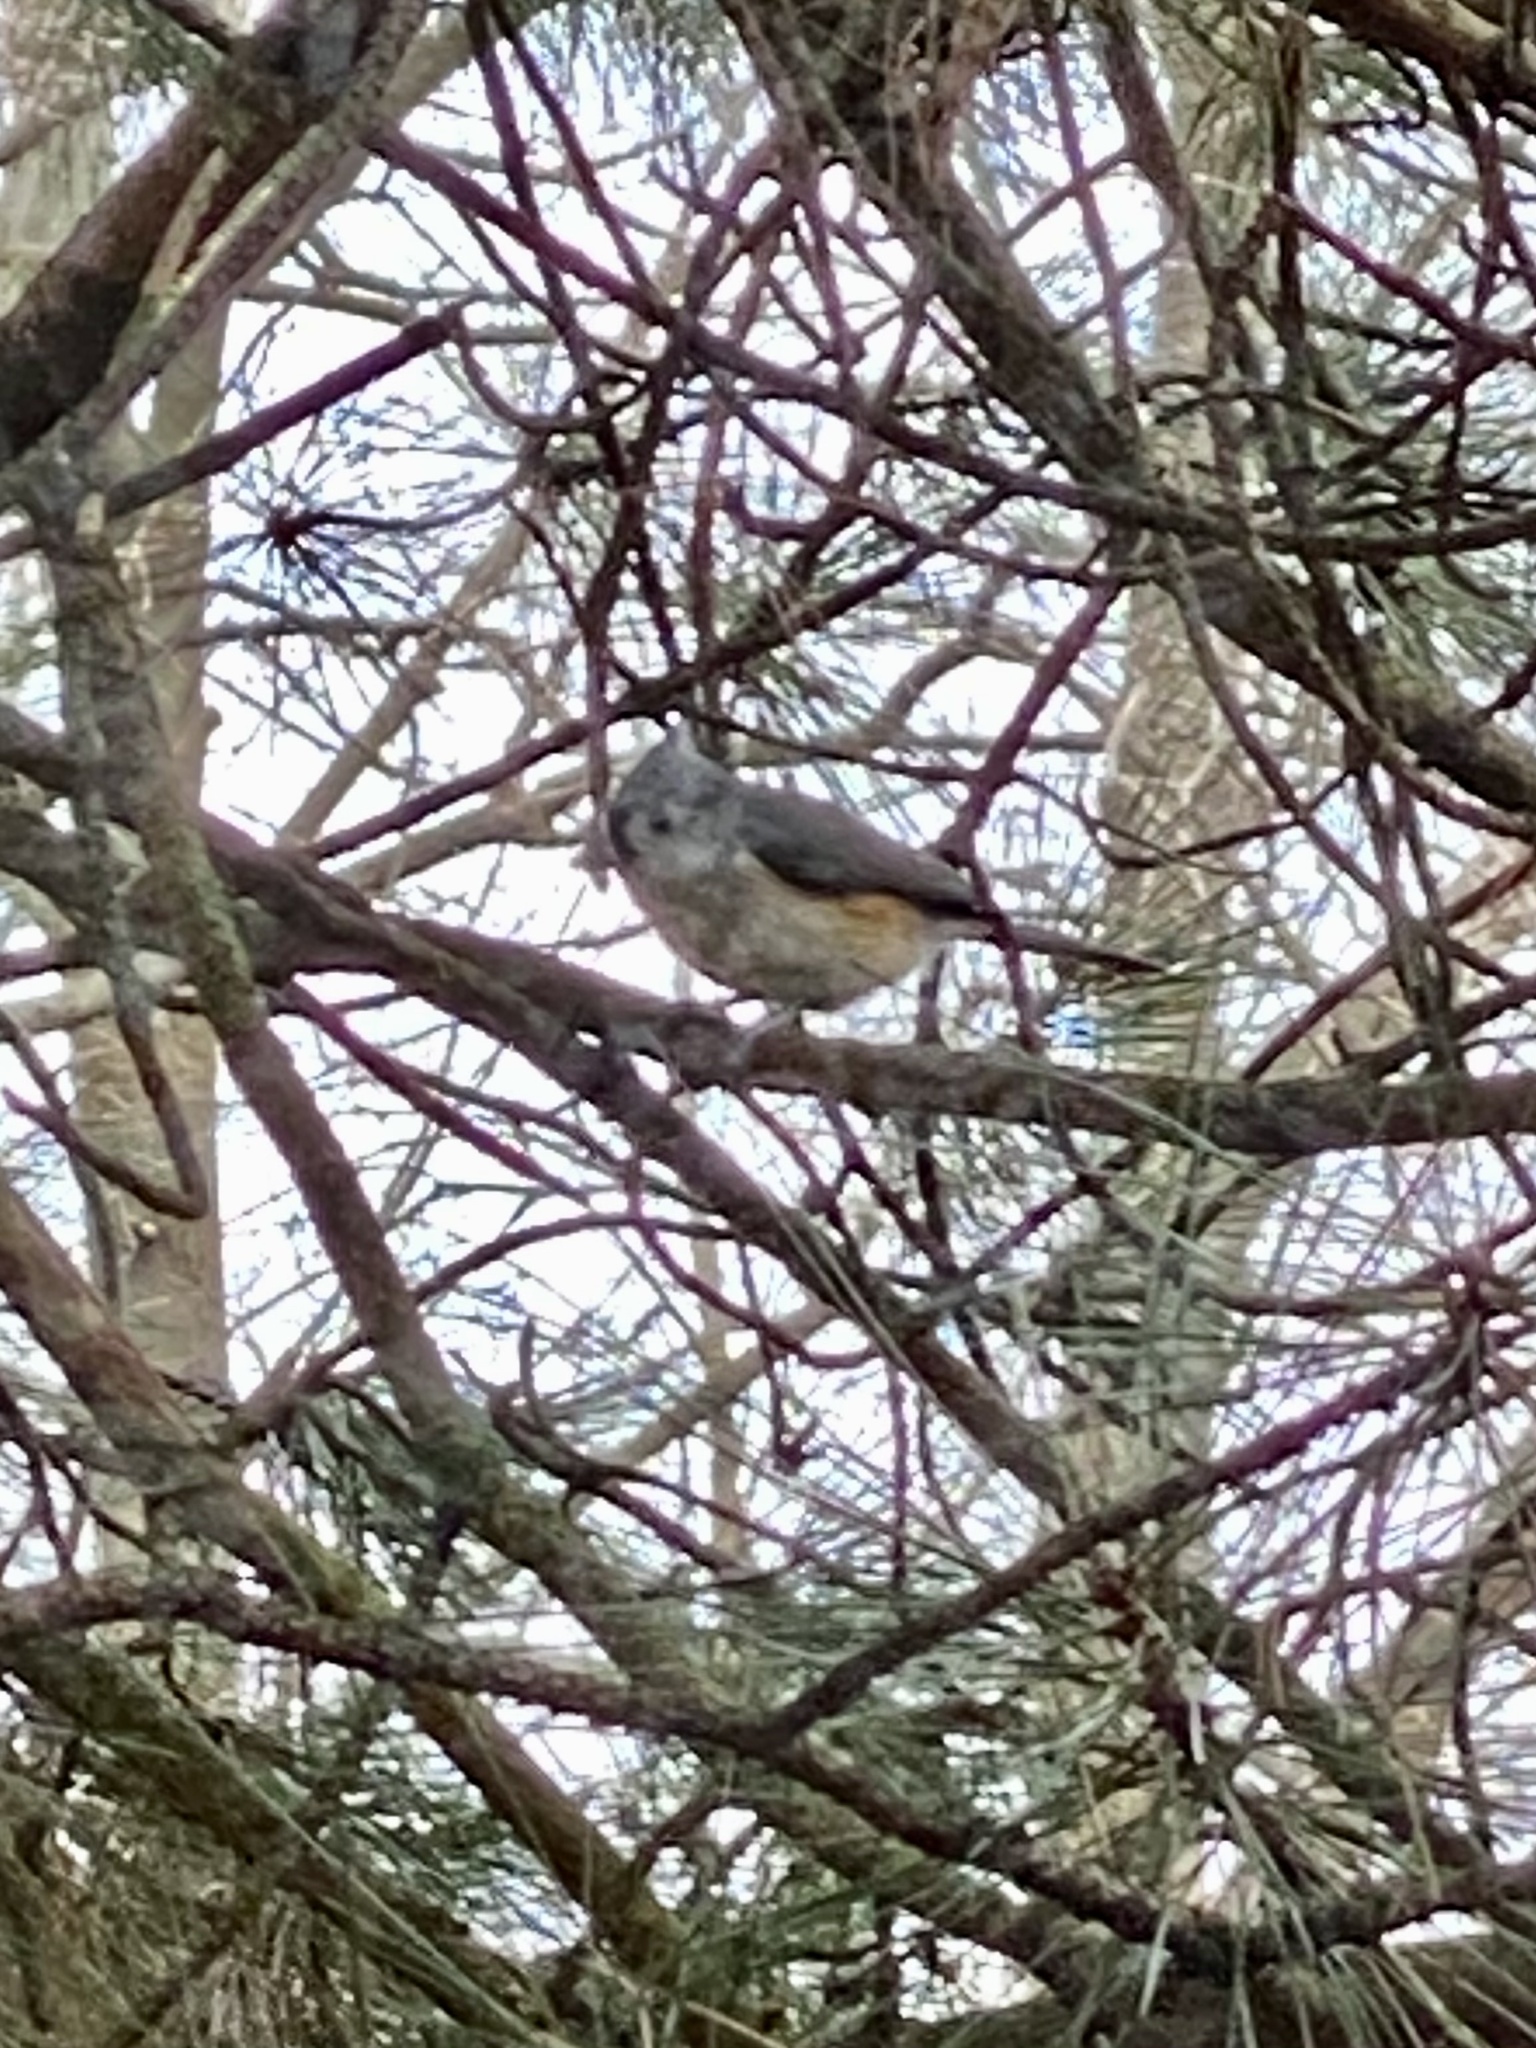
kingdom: Animalia
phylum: Chordata
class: Aves
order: Passeriformes
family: Paridae
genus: Baeolophus
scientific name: Baeolophus bicolor
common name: Tufted titmouse
